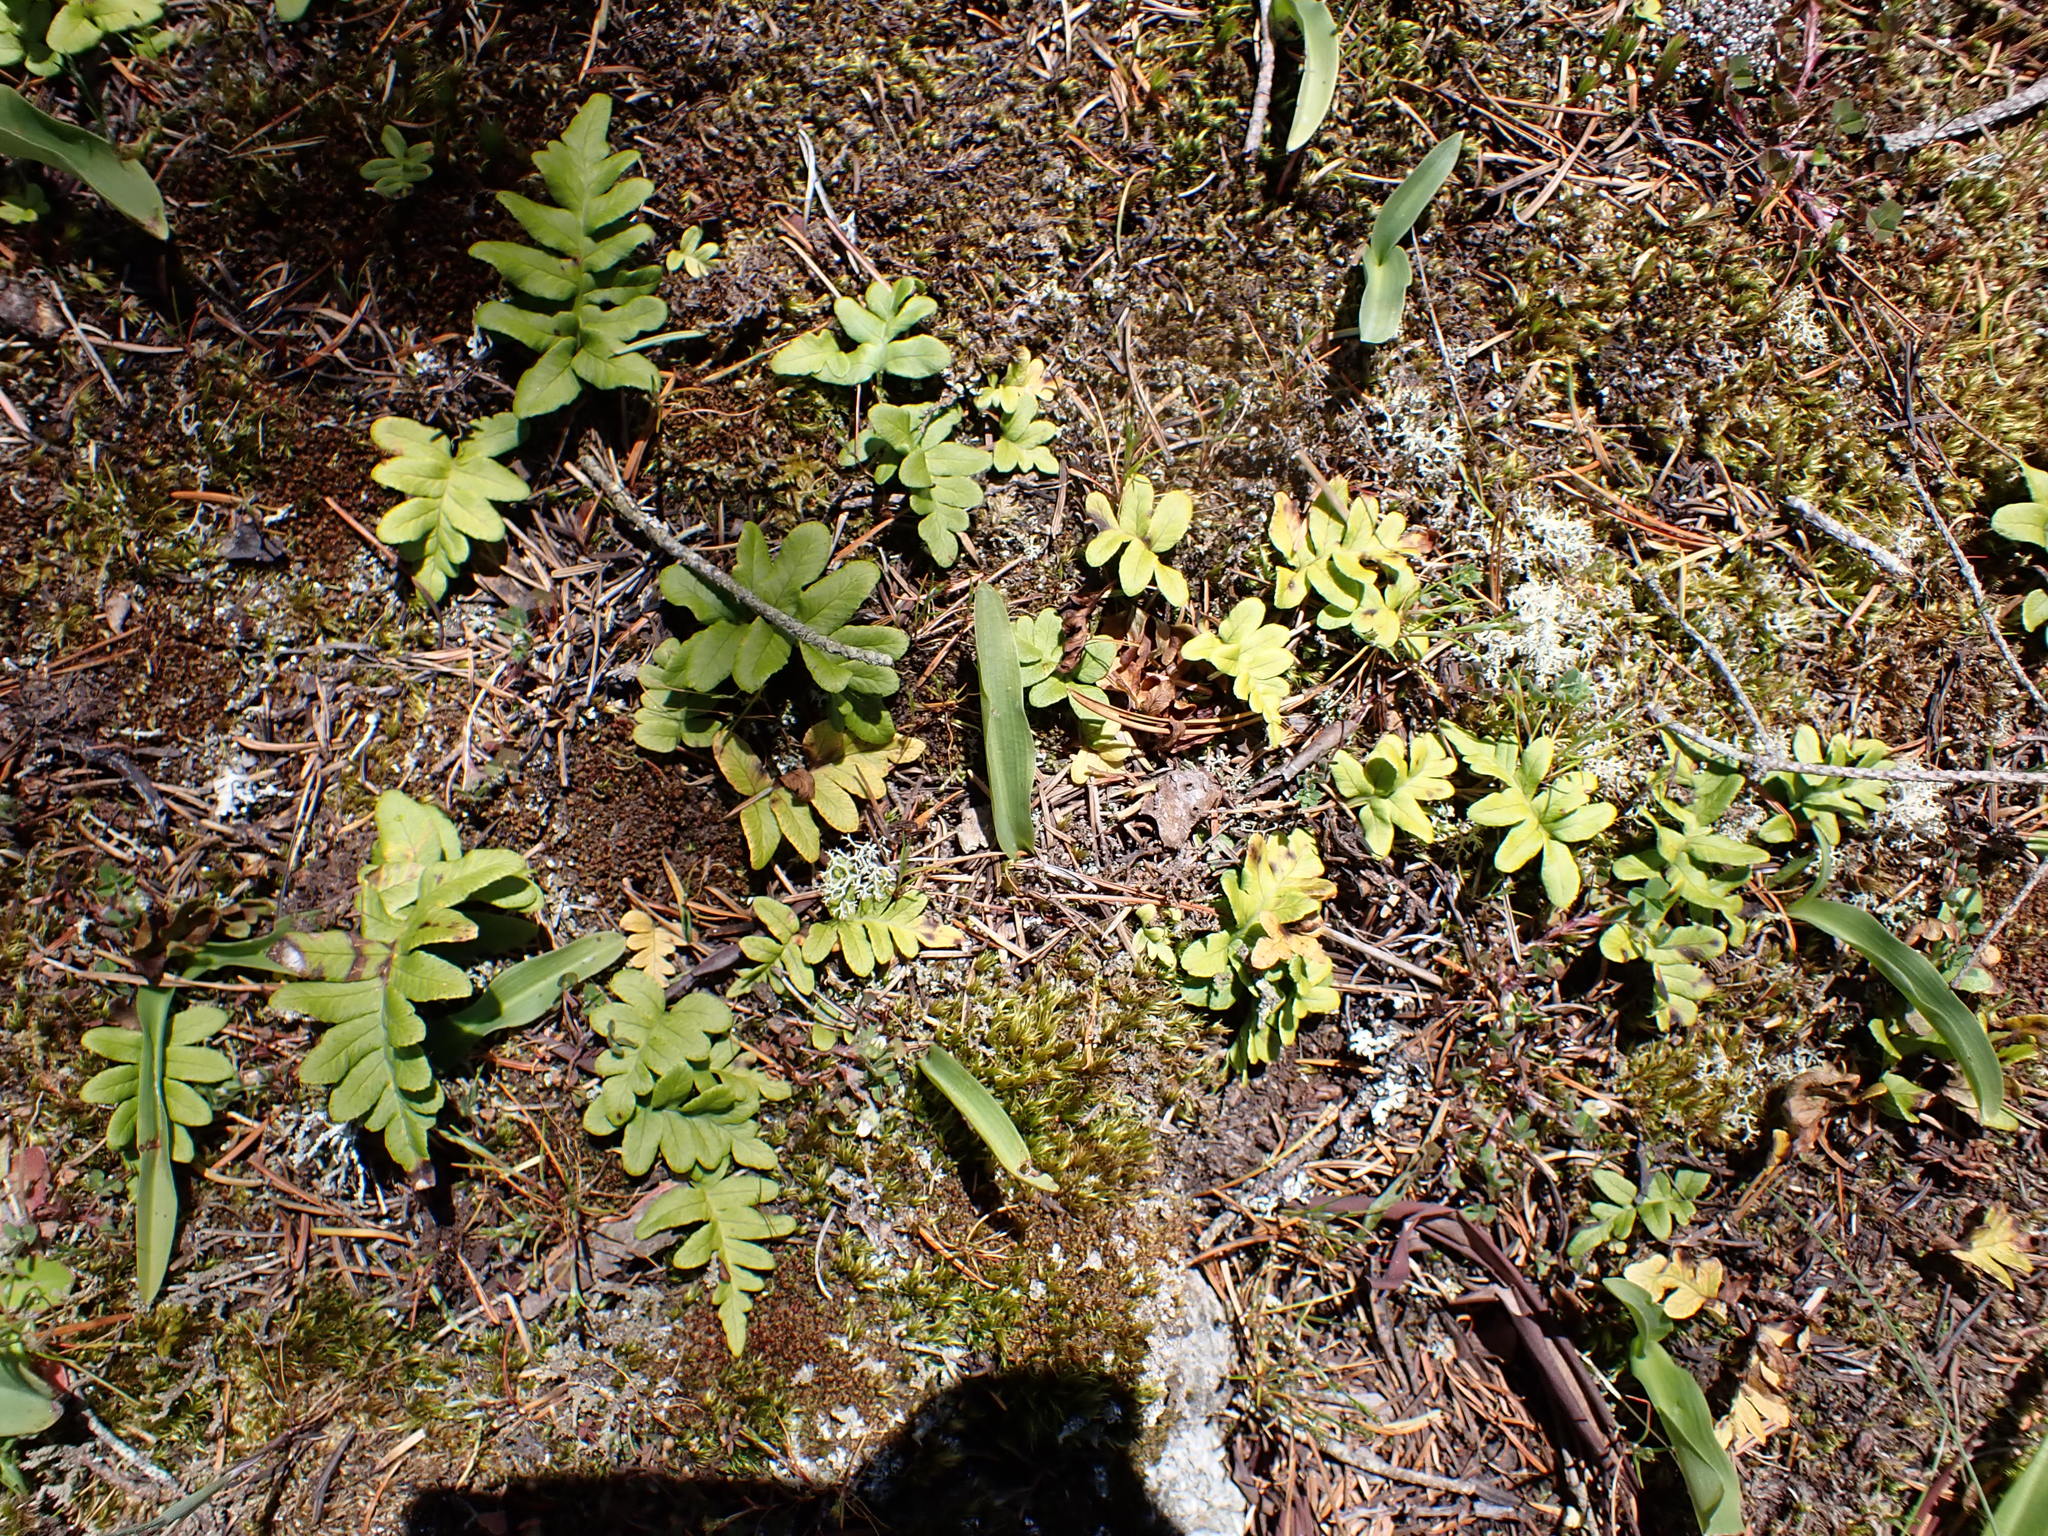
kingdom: Plantae
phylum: Tracheophyta
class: Polypodiopsida
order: Polypodiales
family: Polypodiaceae
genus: Polypodium
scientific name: Polypodium glycyrrhiza
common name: Licorice fern
